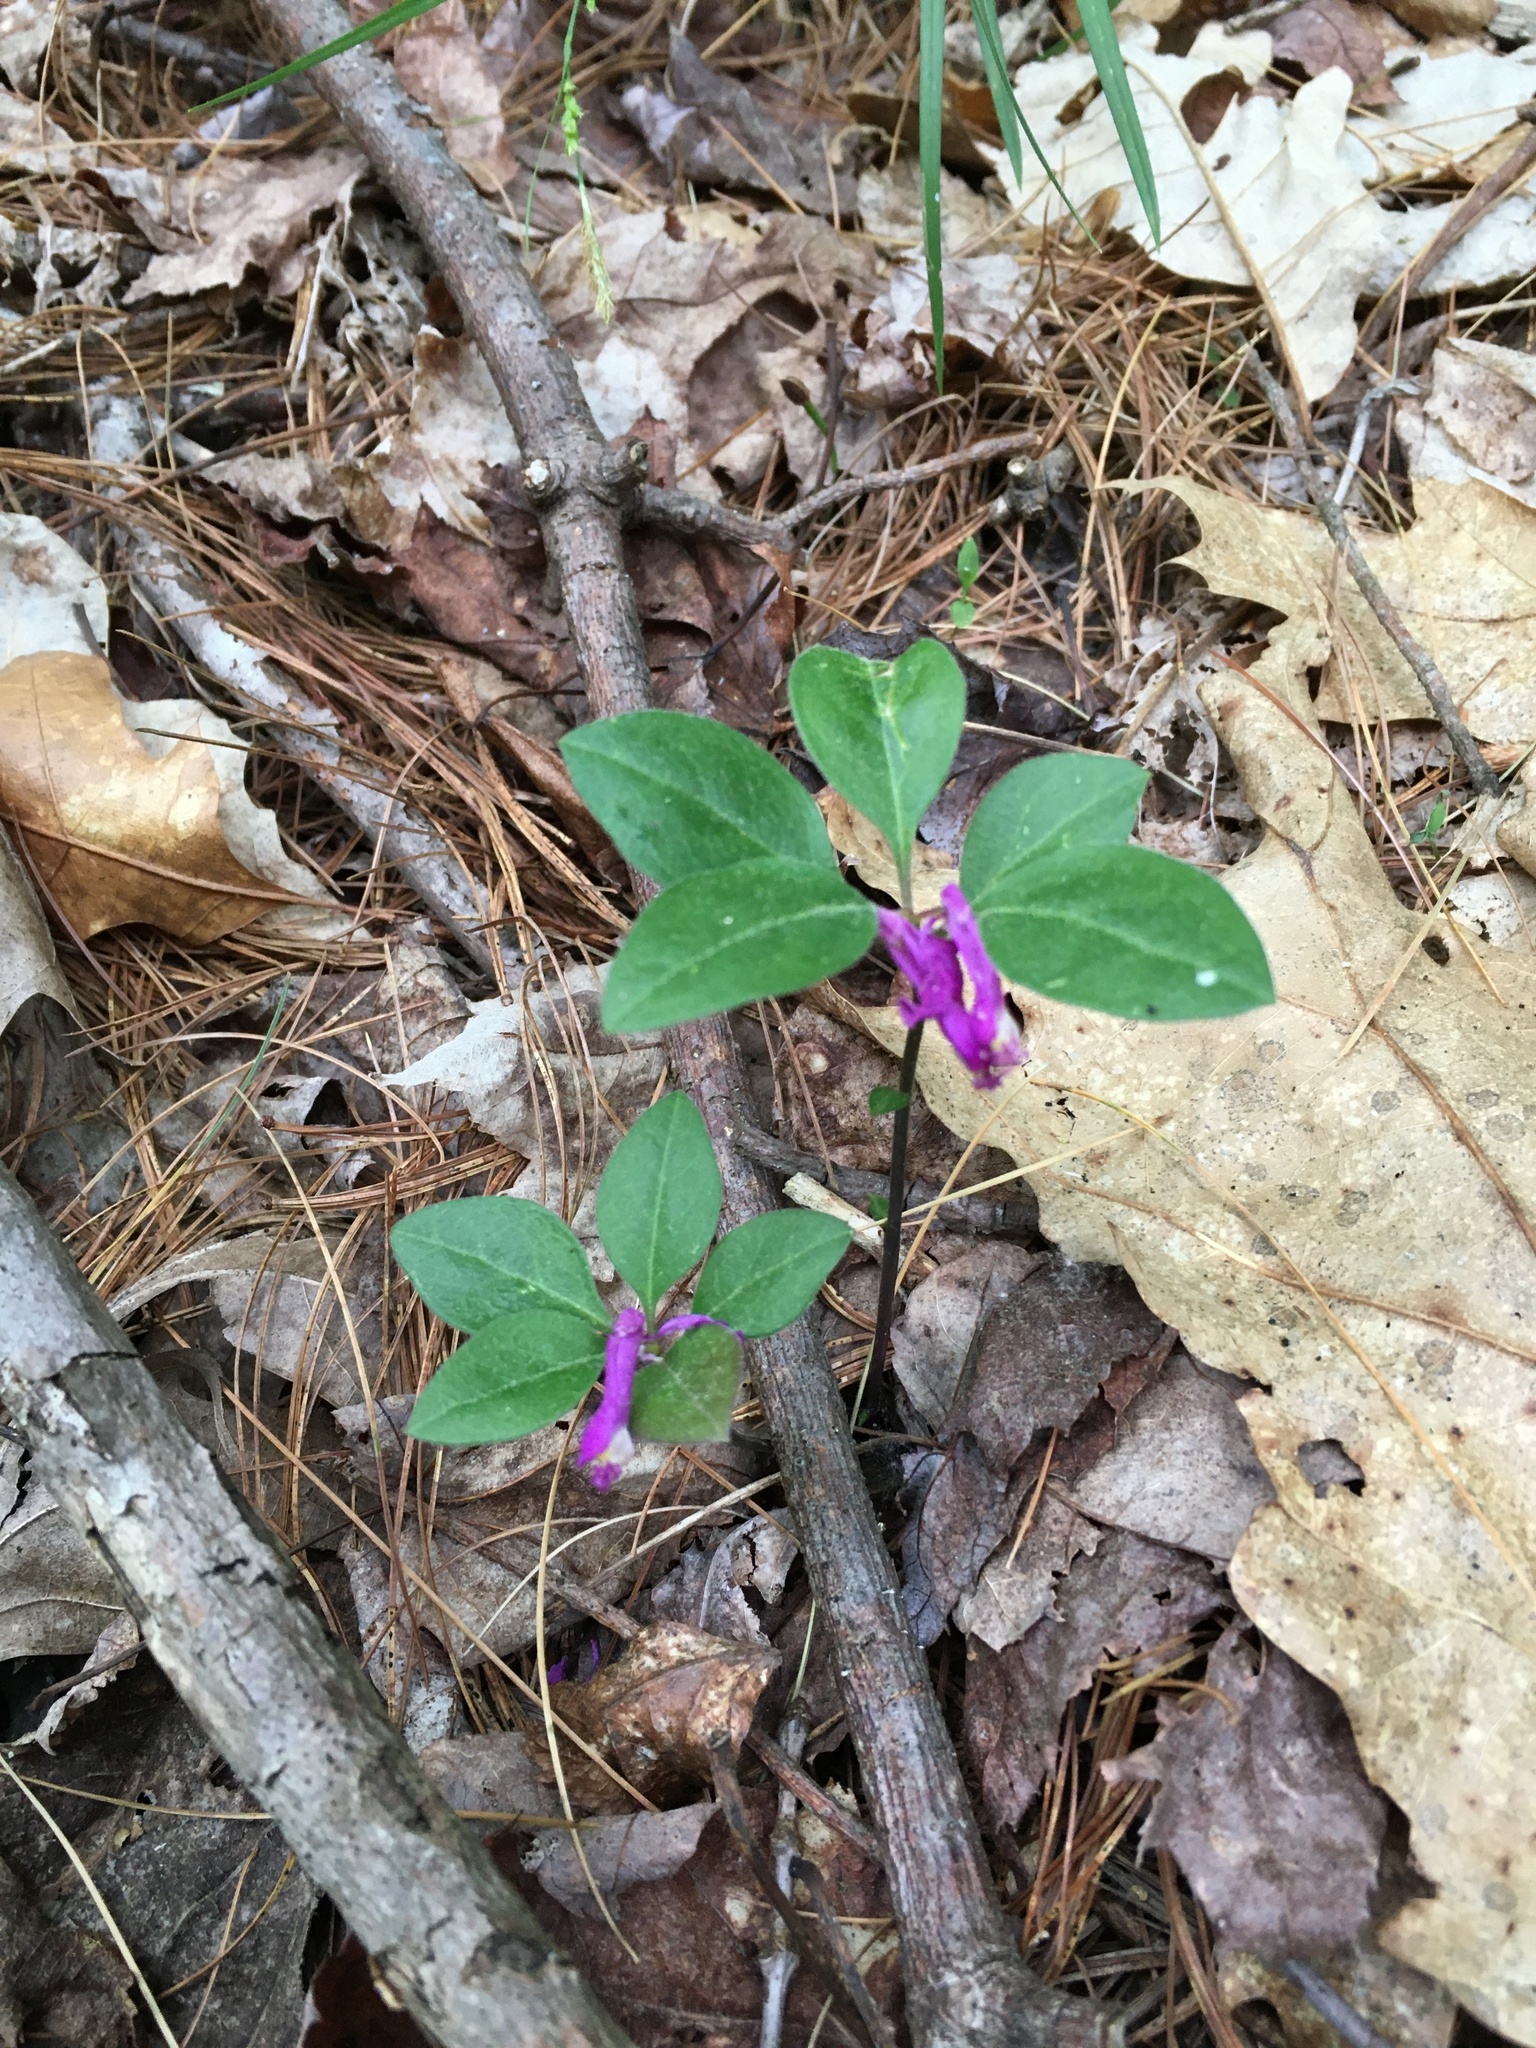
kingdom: Plantae
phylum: Tracheophyta
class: Magnoliopsida
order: Fabales
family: Polygalaceae
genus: Polygaloides
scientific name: Polygaloides paucifolia
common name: Bird-on-the-wing
